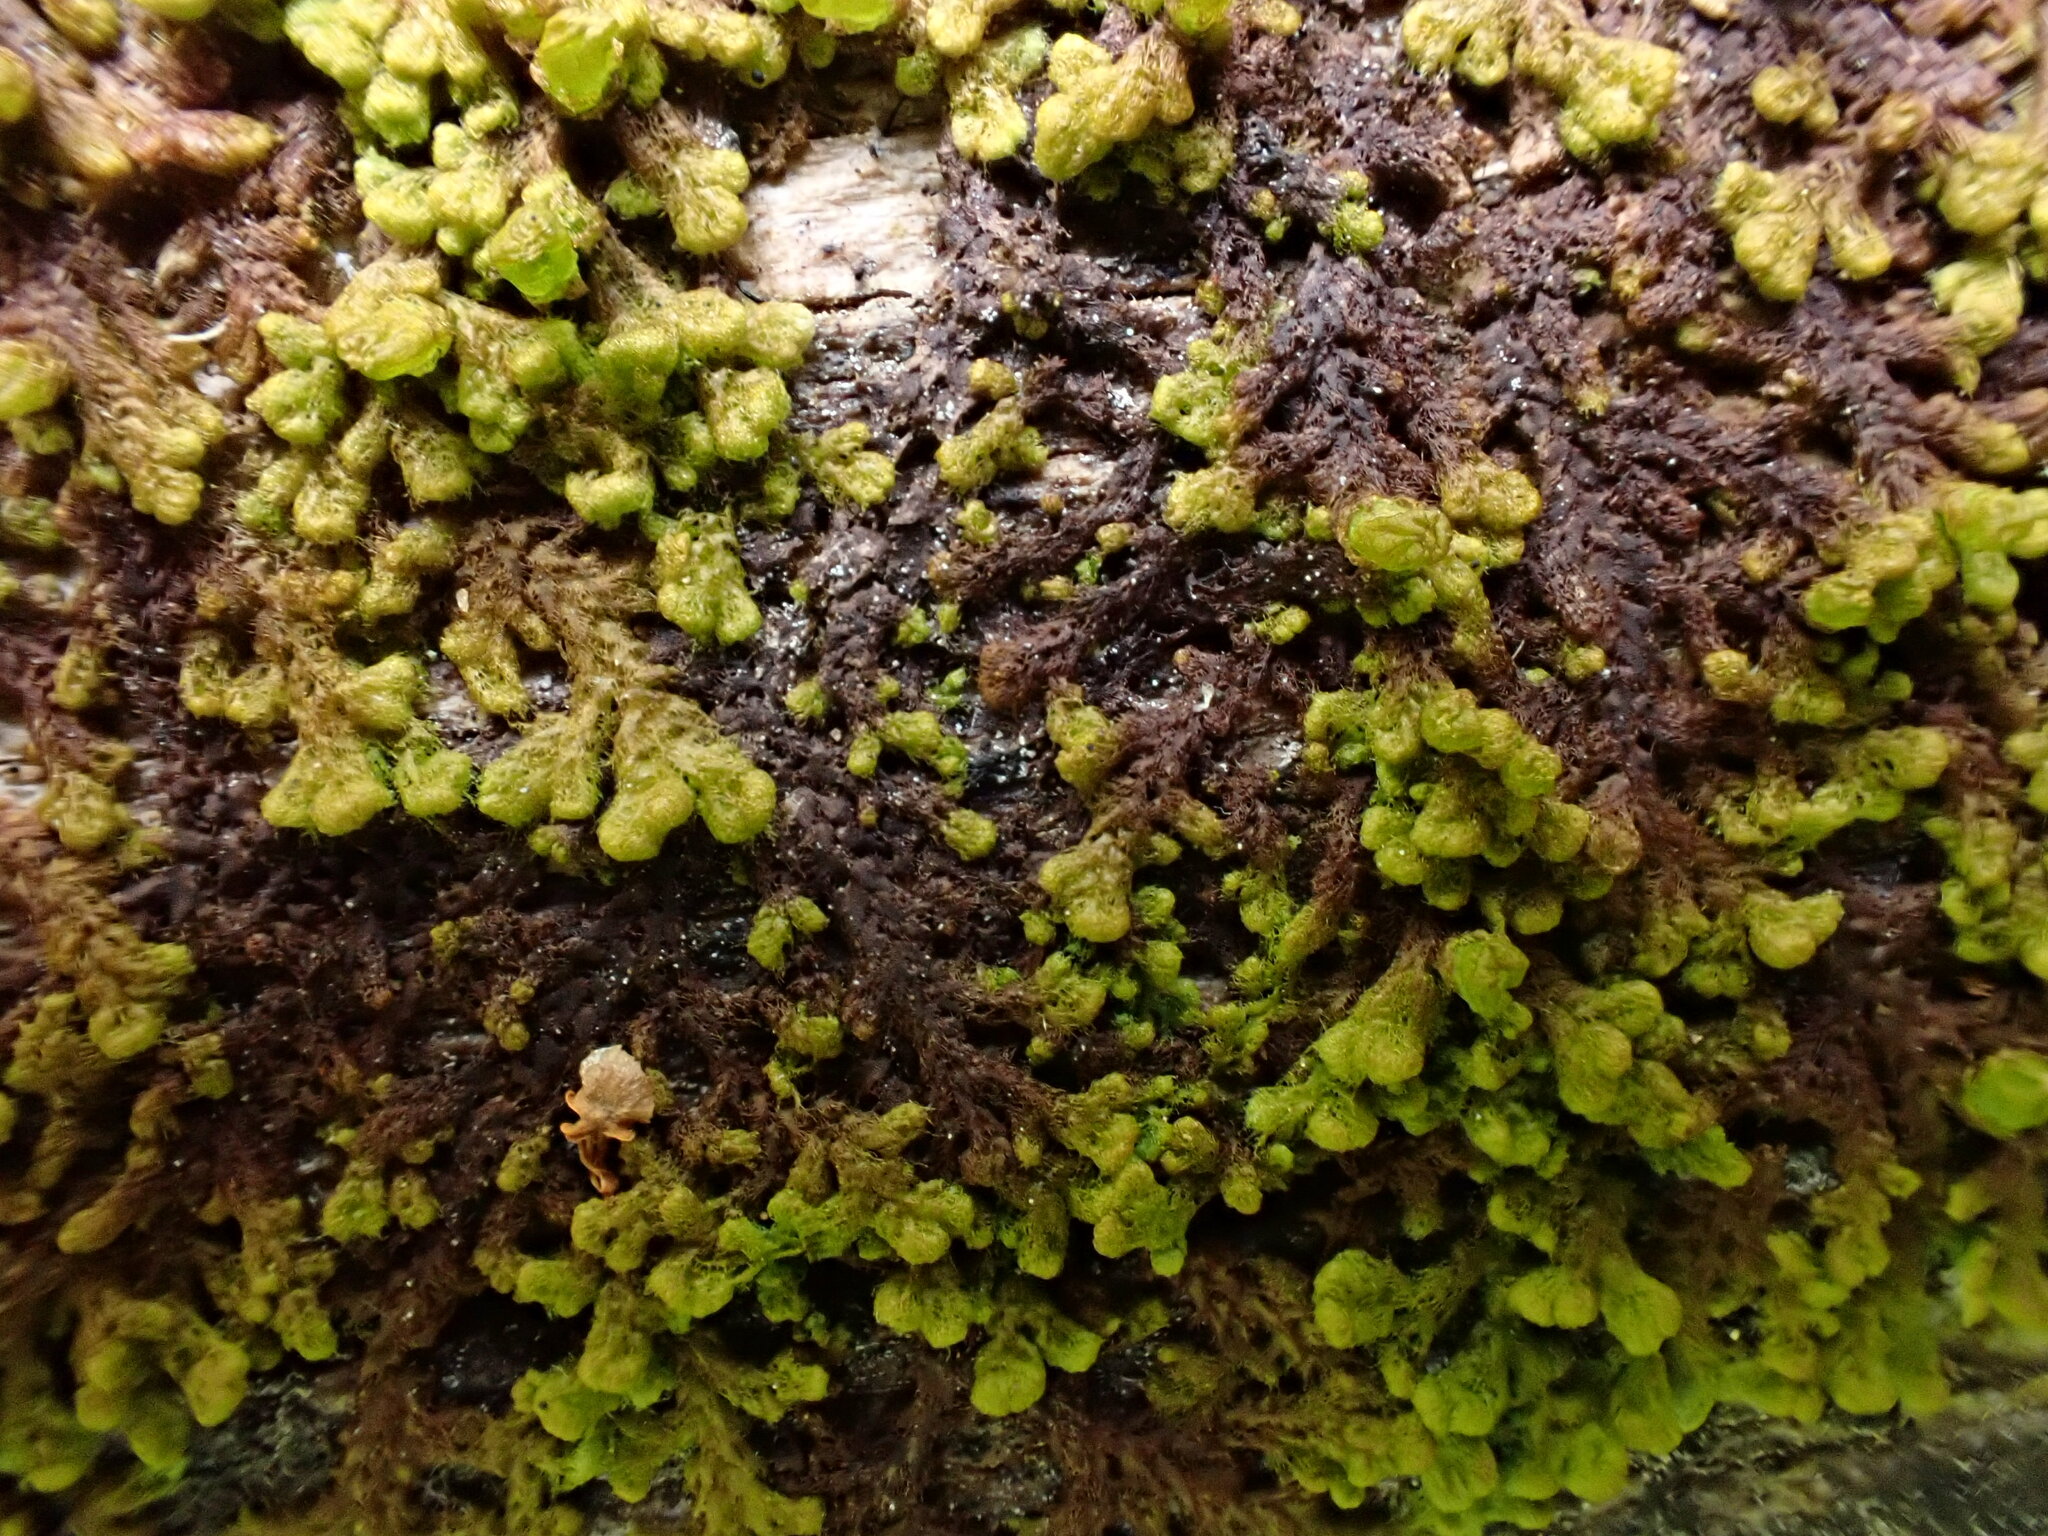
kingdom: Plantae
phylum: Marchantiophyta
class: Jungermanniopsida
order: Ptilidiales
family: Ptilidiaceae
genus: Ptilidium
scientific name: Ptilidium pulcherrimum
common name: Tree fringewort
